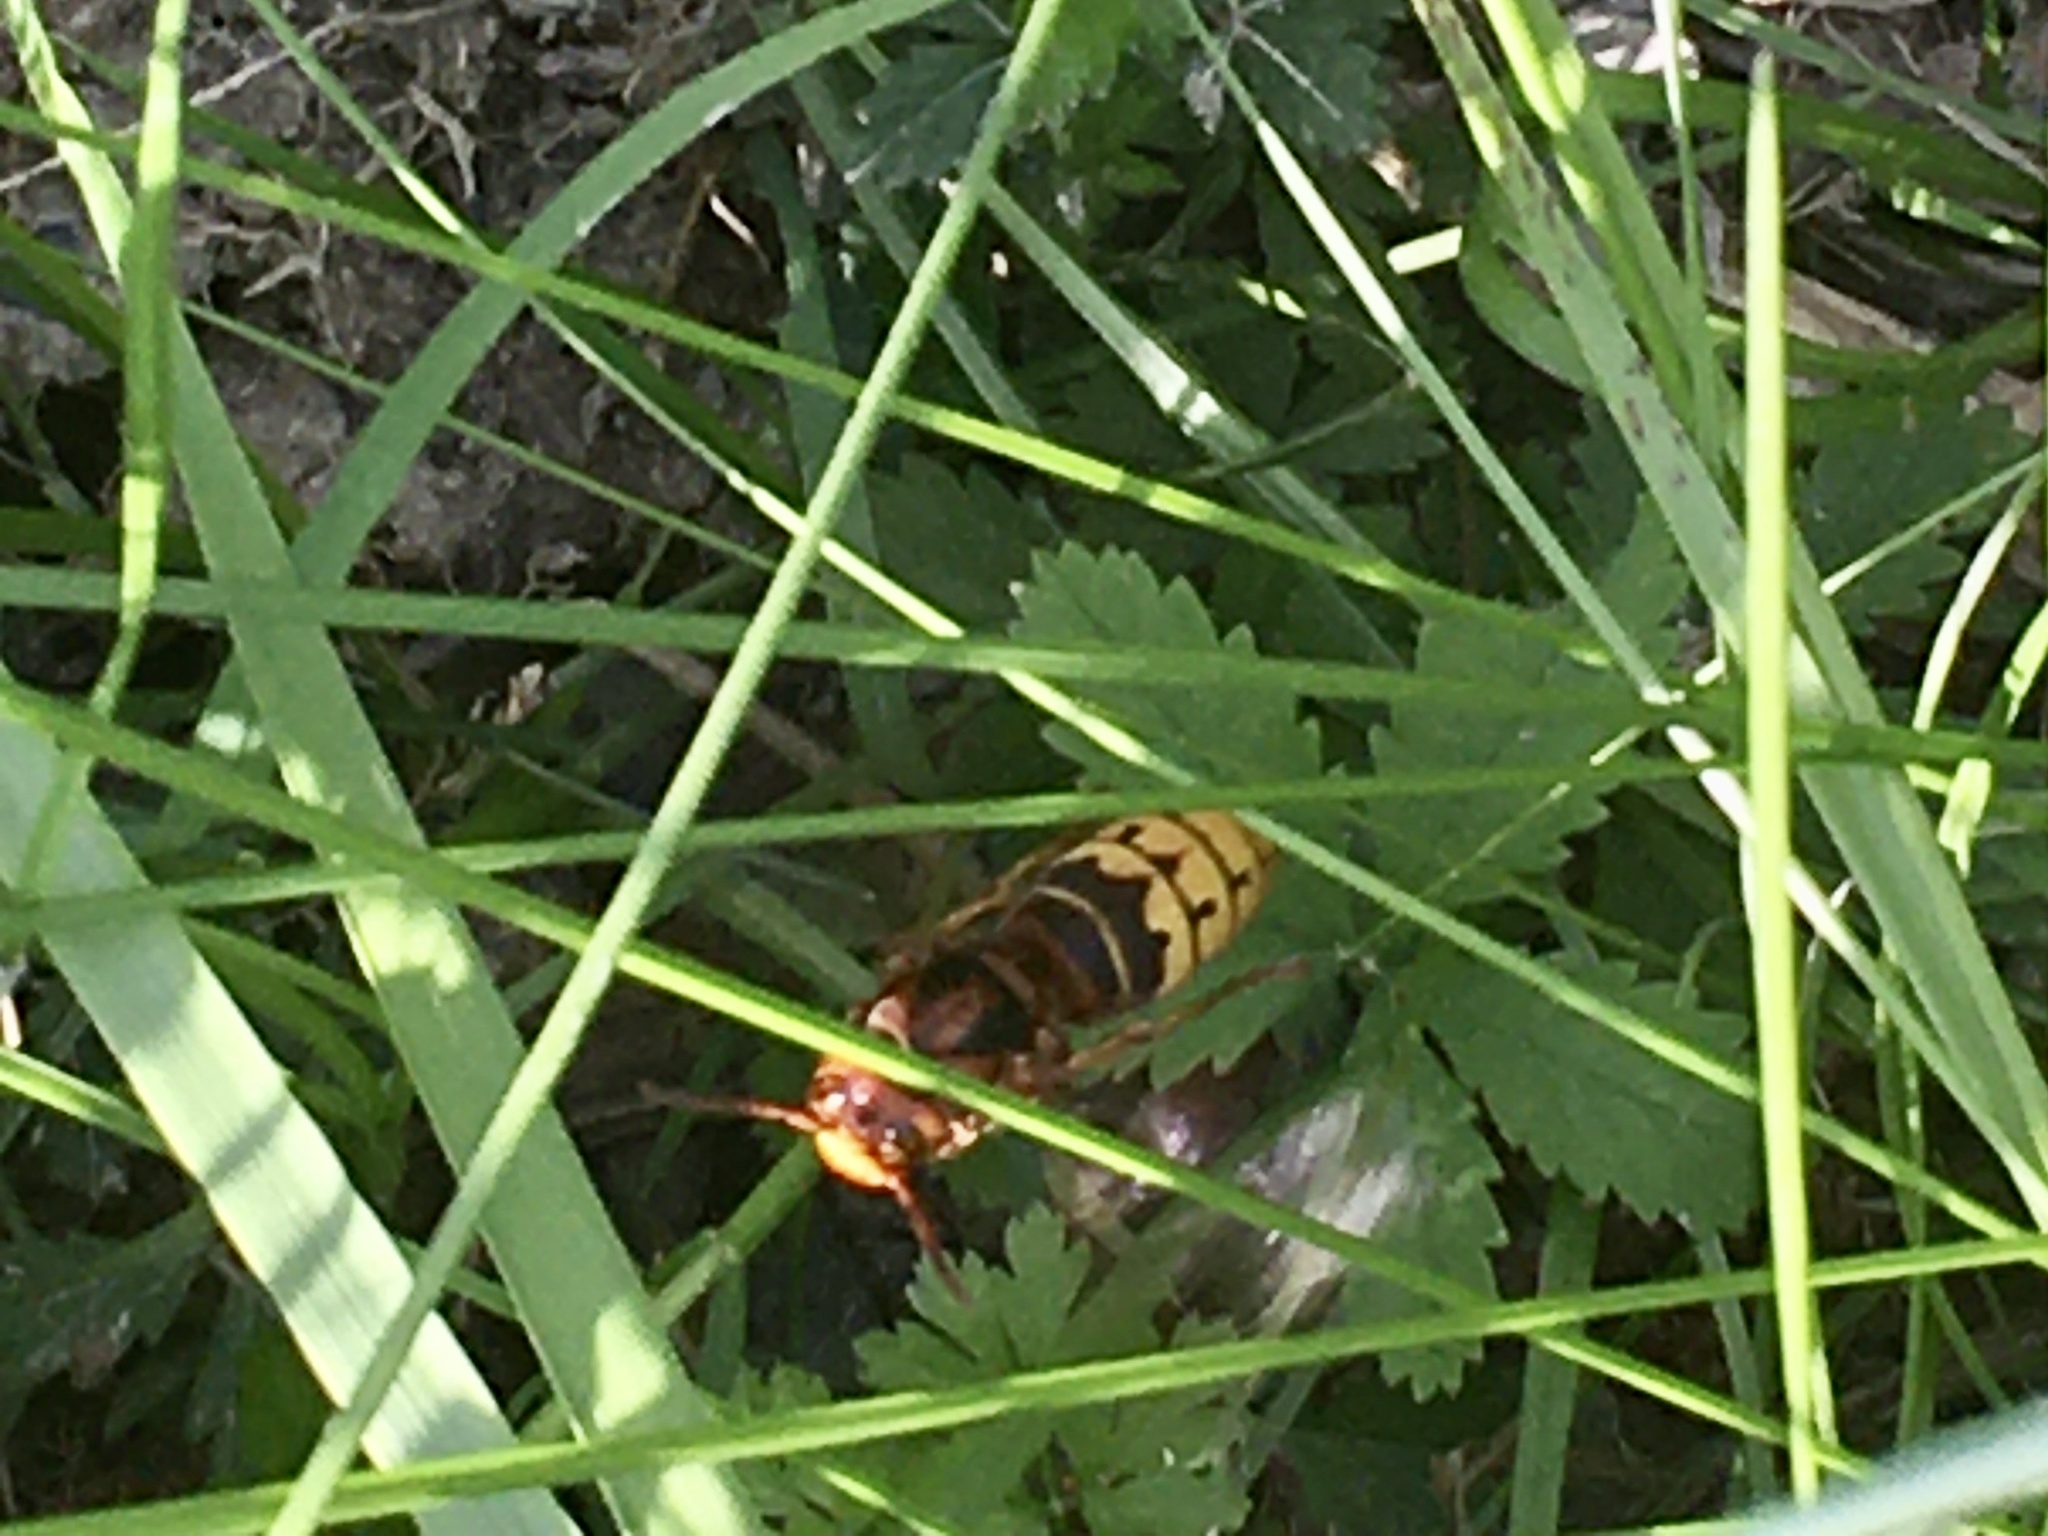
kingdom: Animalia
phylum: Arthropoda
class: Insecta
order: Hymenoptera
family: Vespidae
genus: Vespa
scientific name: Vespa crabro
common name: Hornet
